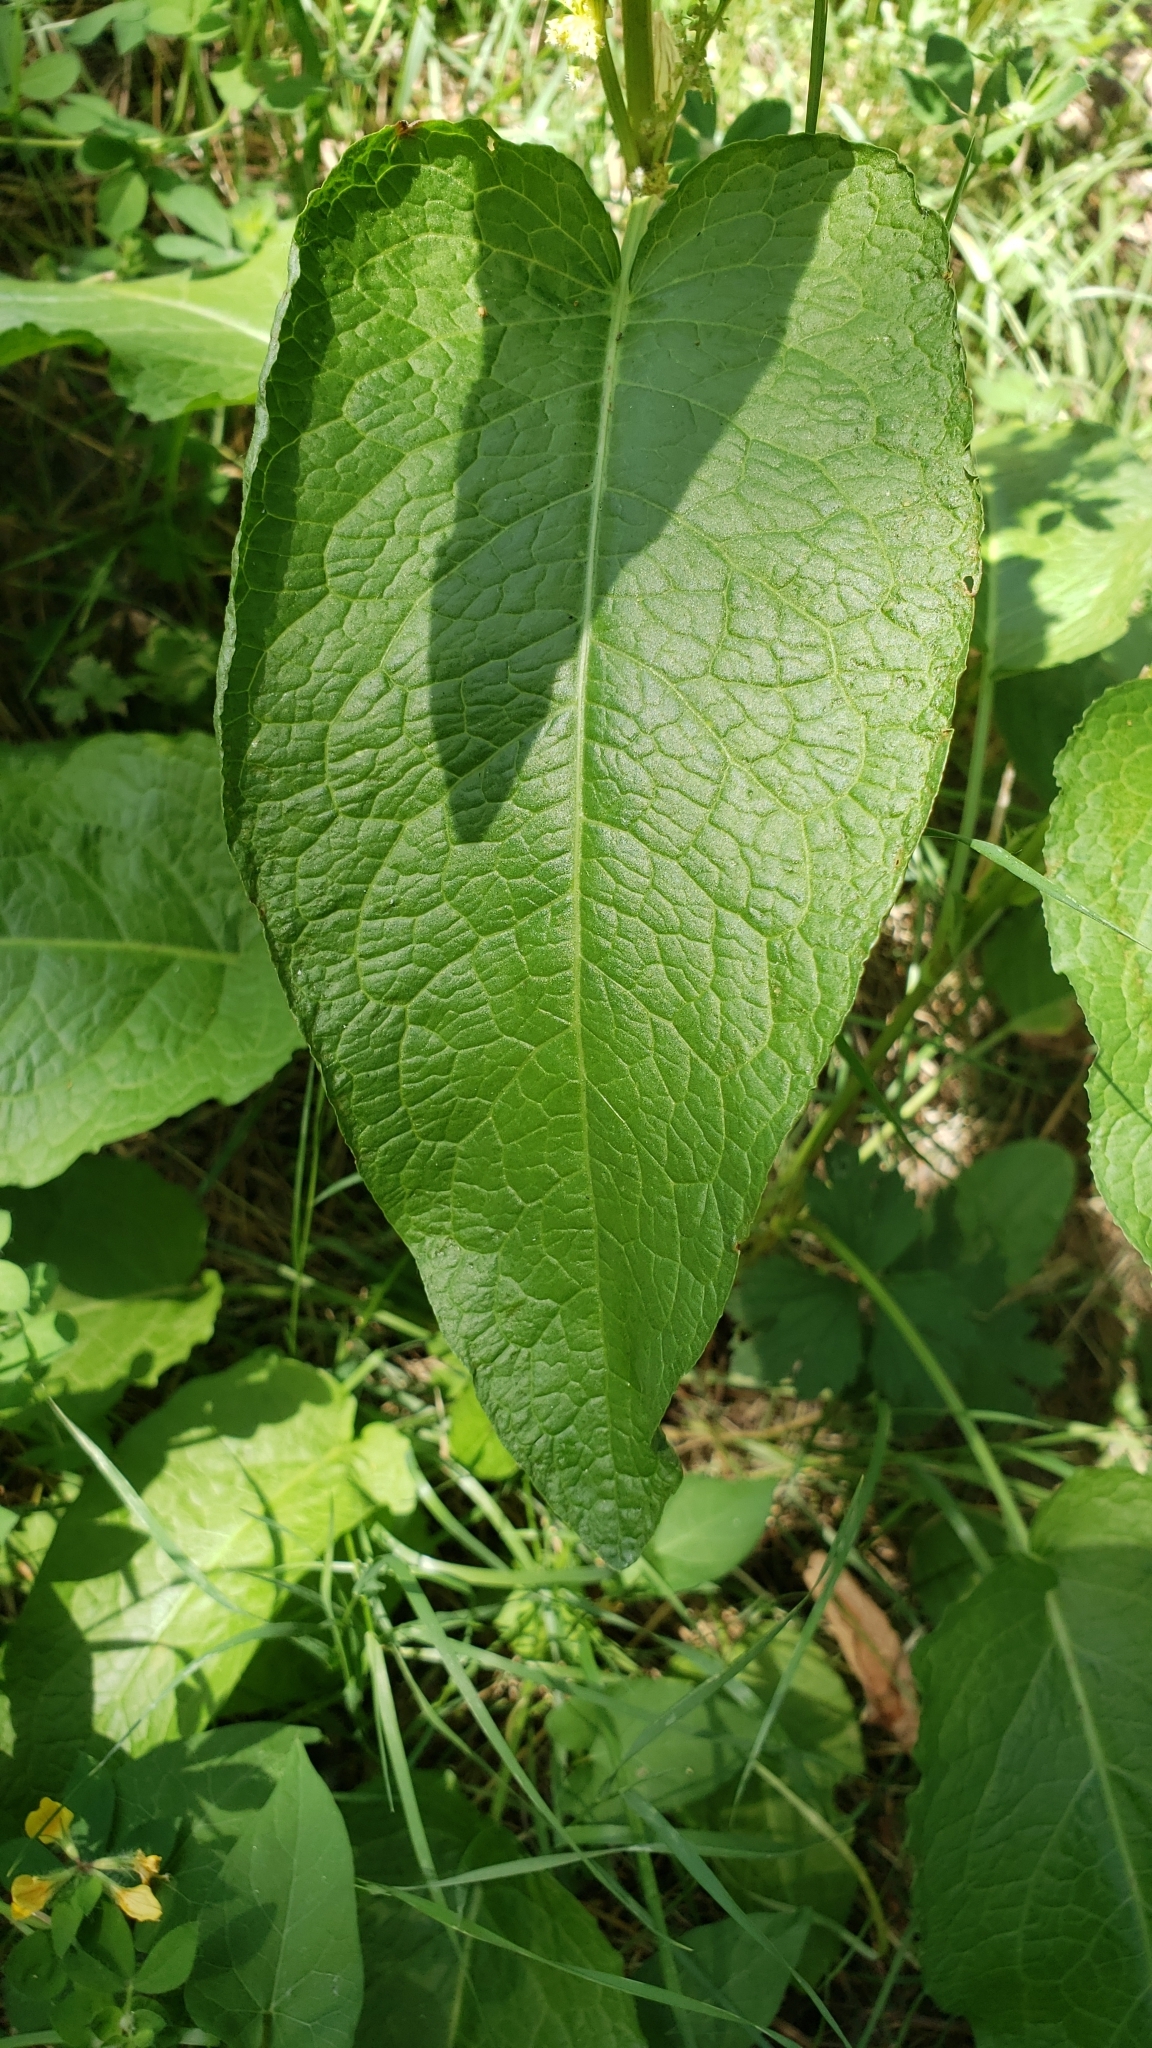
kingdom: Plantae
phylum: Tracheophyta
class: Magnoliopsida
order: Caryophyllales
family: Polygonaceae
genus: Rumex
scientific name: Rumex obtusifolius
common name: Bitter dock
